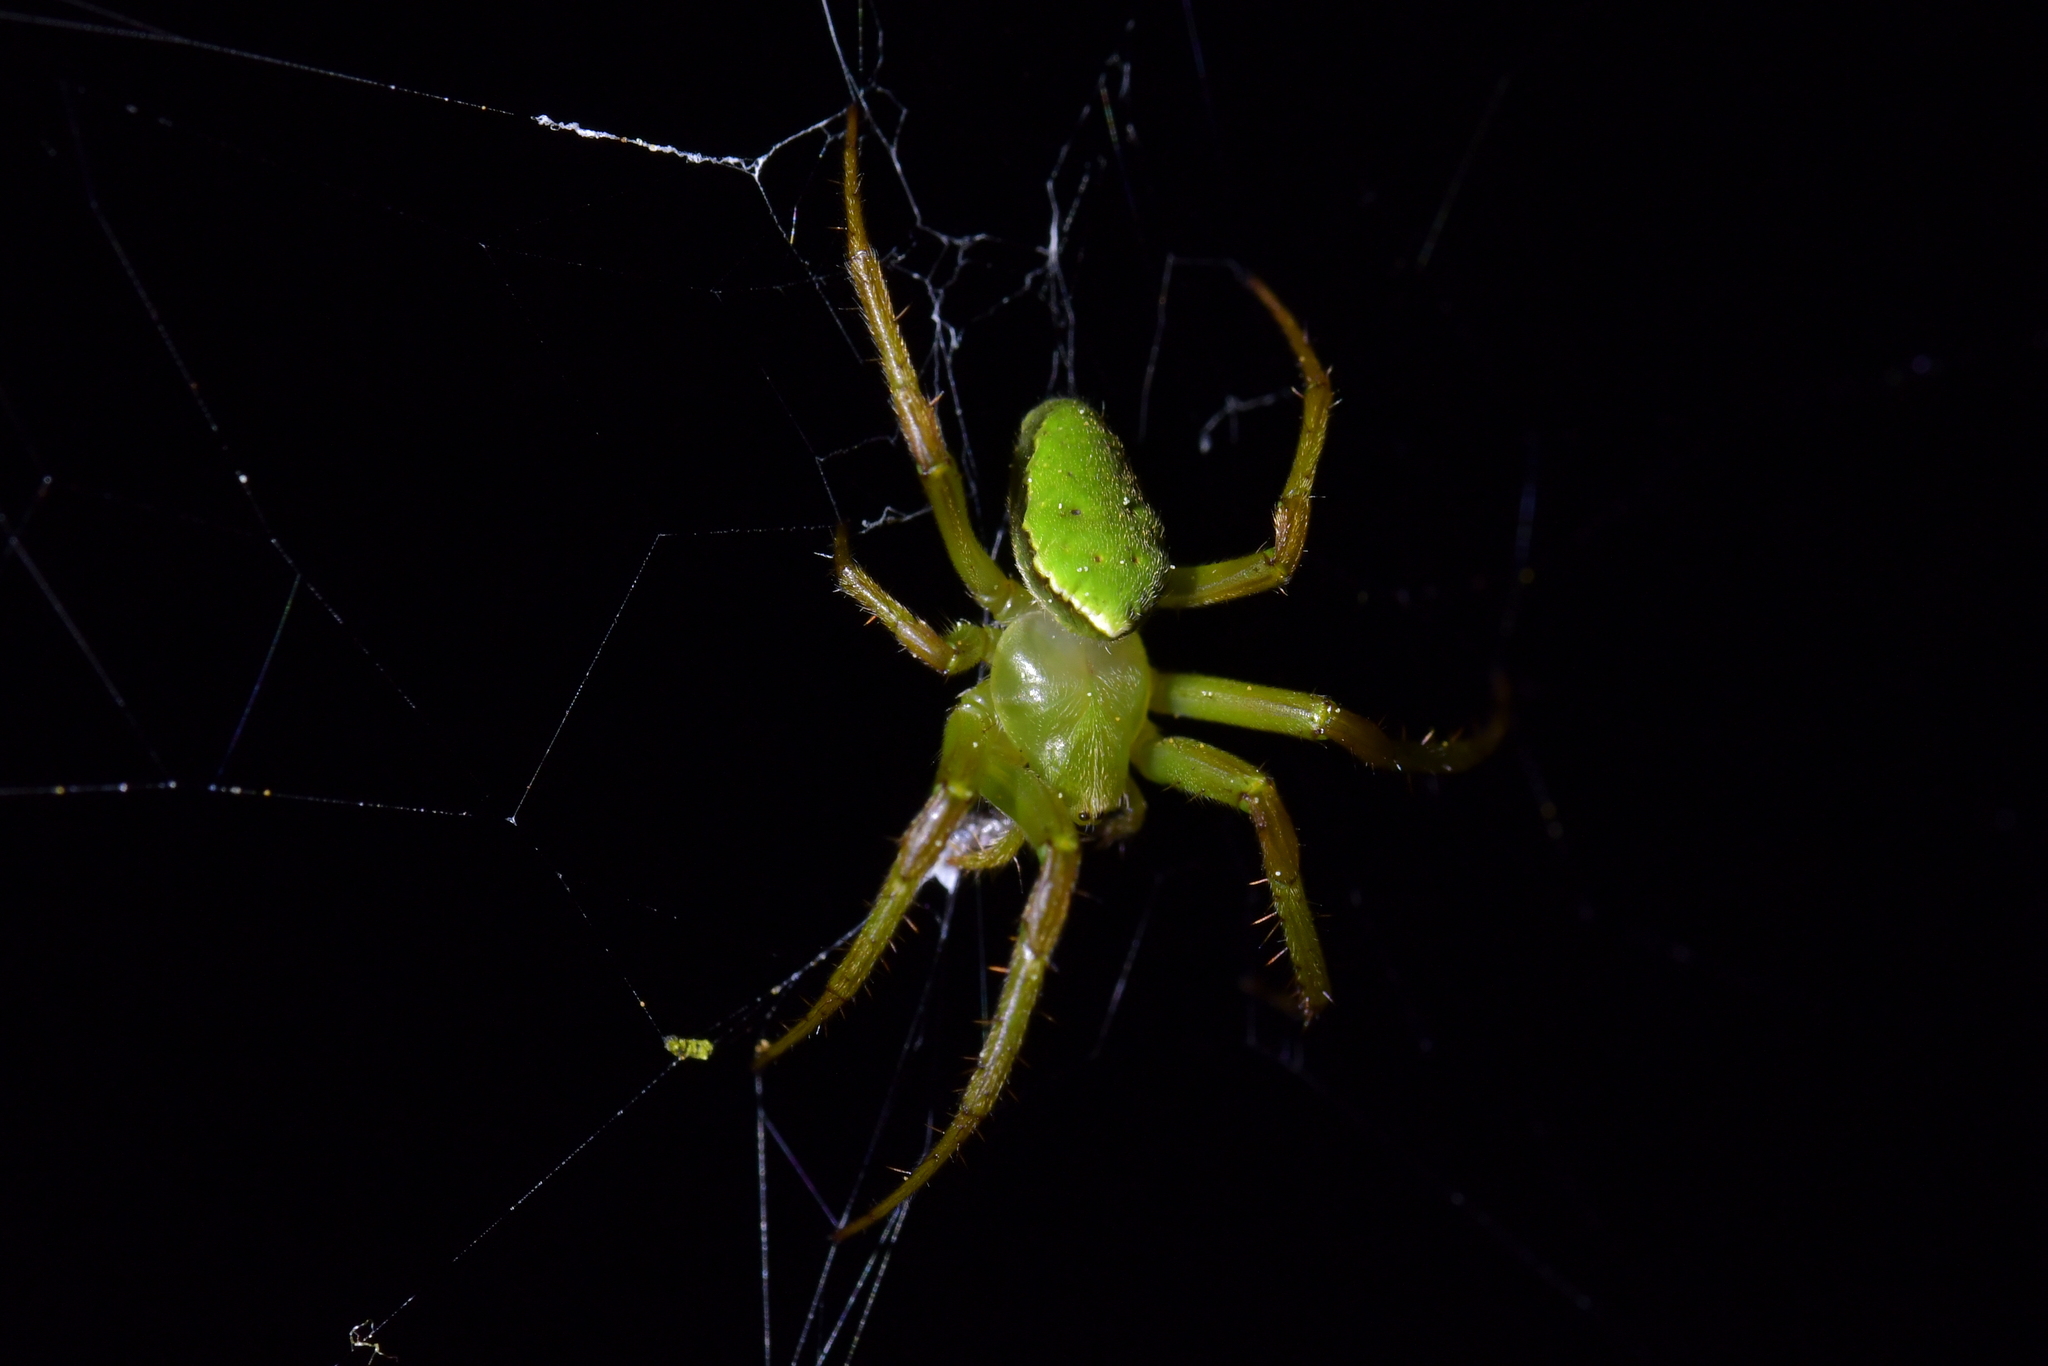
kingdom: Animalia
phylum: Arthropoda
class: Arachnida
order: Araneae
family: Araneidae
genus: Colaranea
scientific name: Colaranea viriditas
